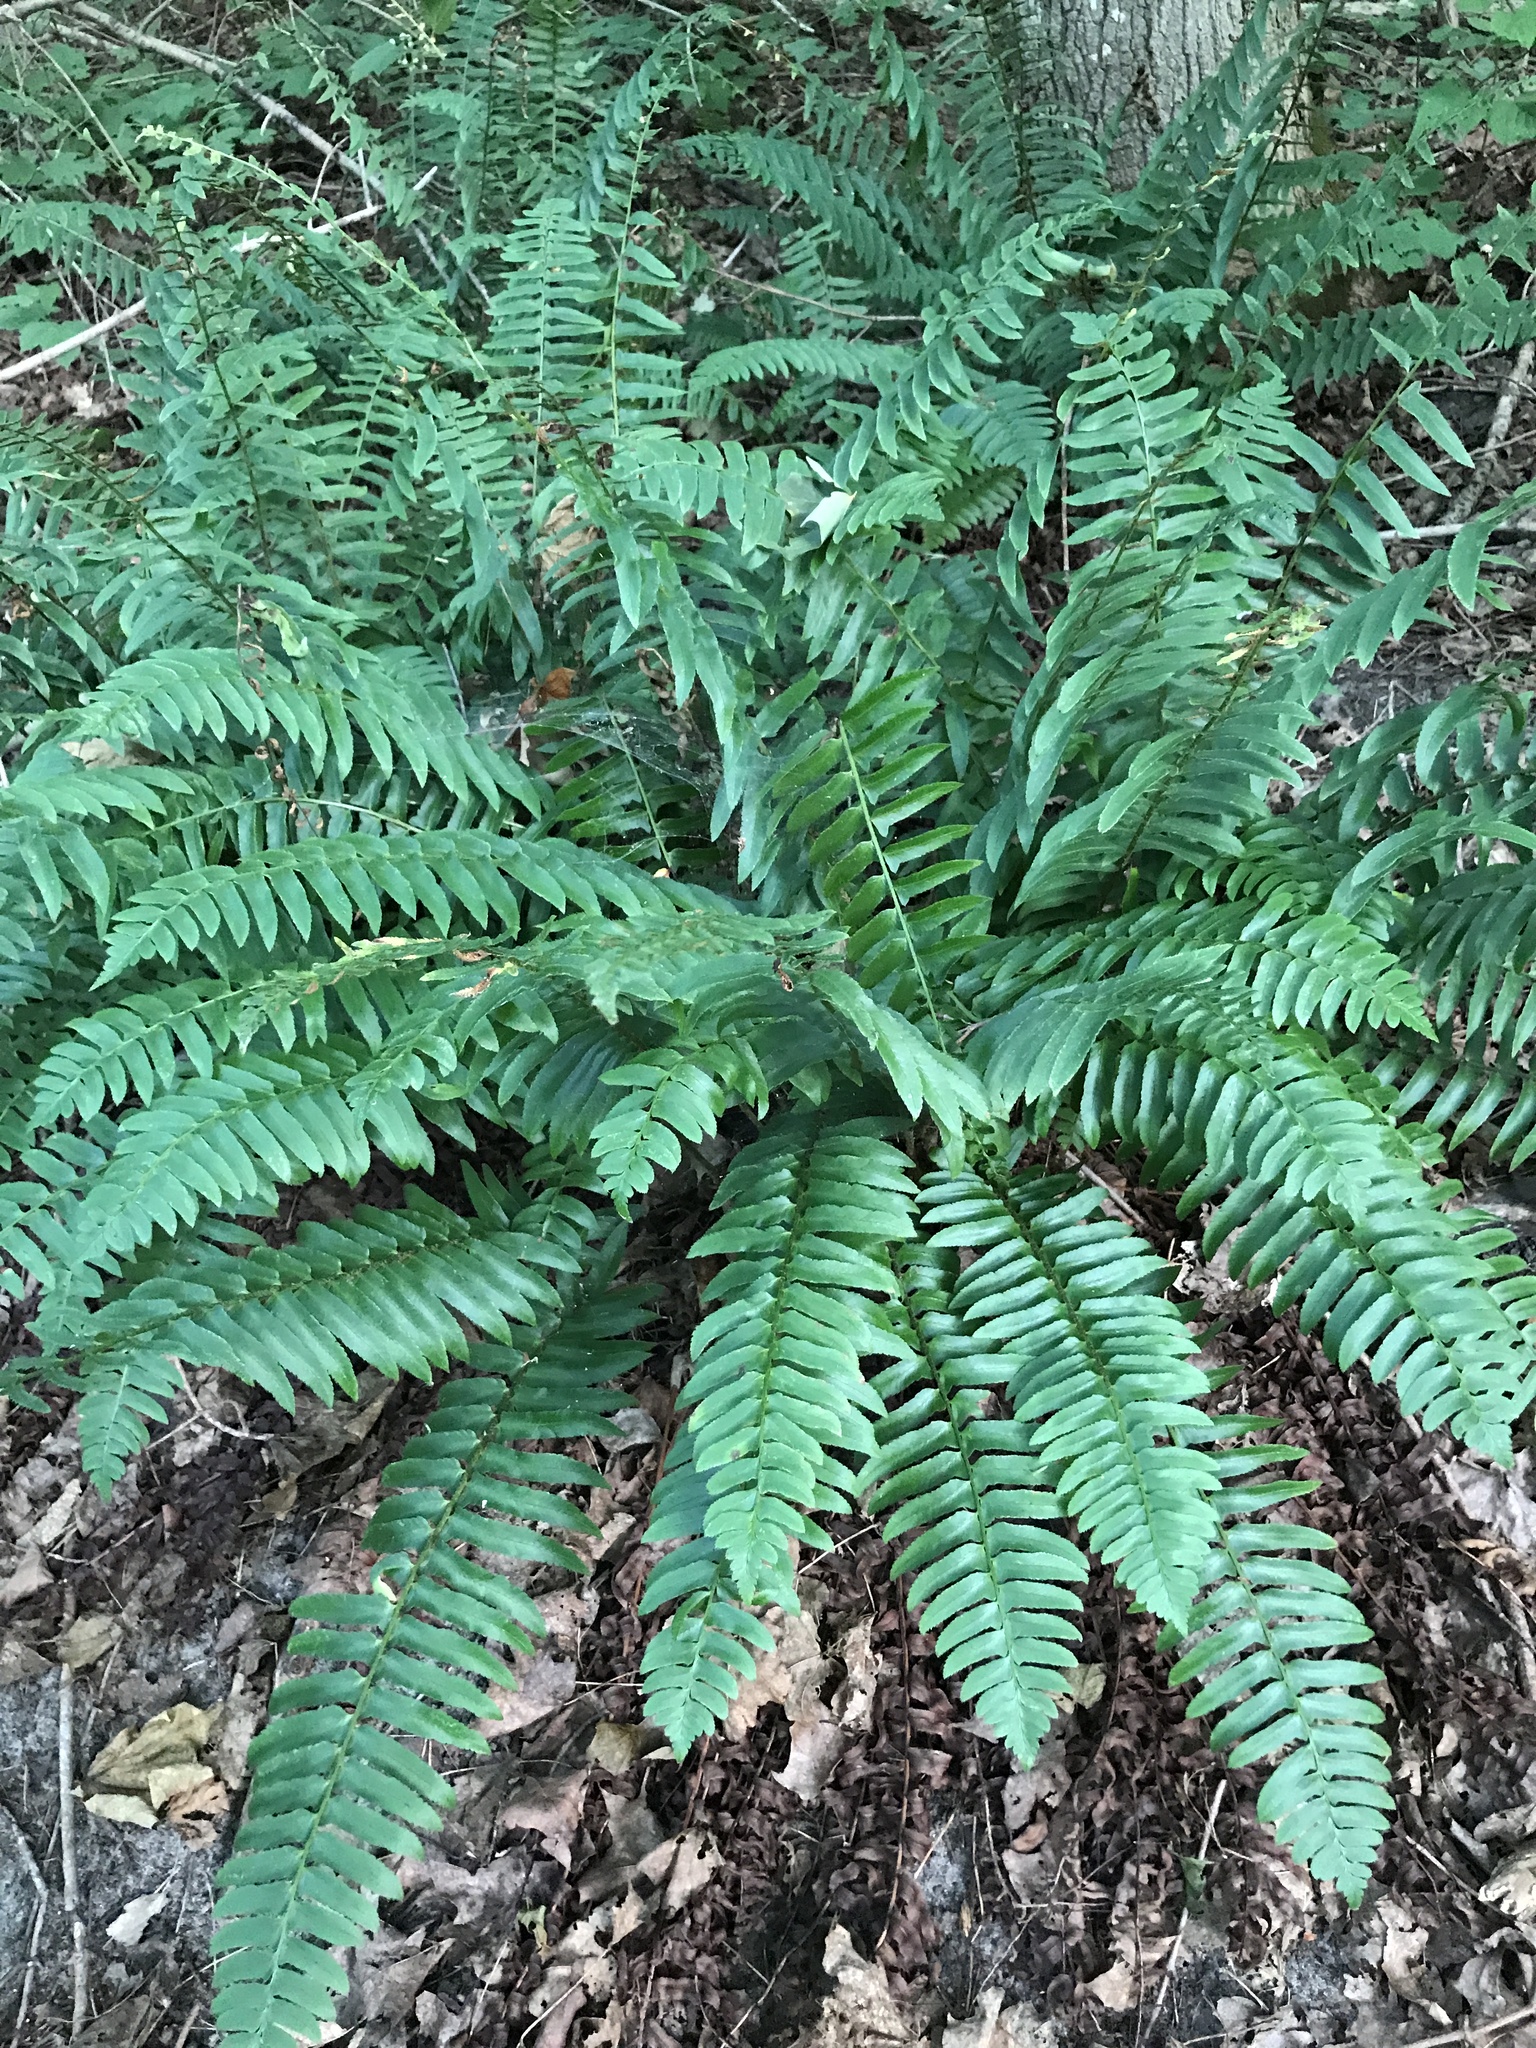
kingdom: Plantae
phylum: Tracheophyta
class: Polypodiopsida
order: Polypodiales
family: Dryopteridaceae
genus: Polystichum
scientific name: Polystichum acrostichoides
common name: Christmas fern
